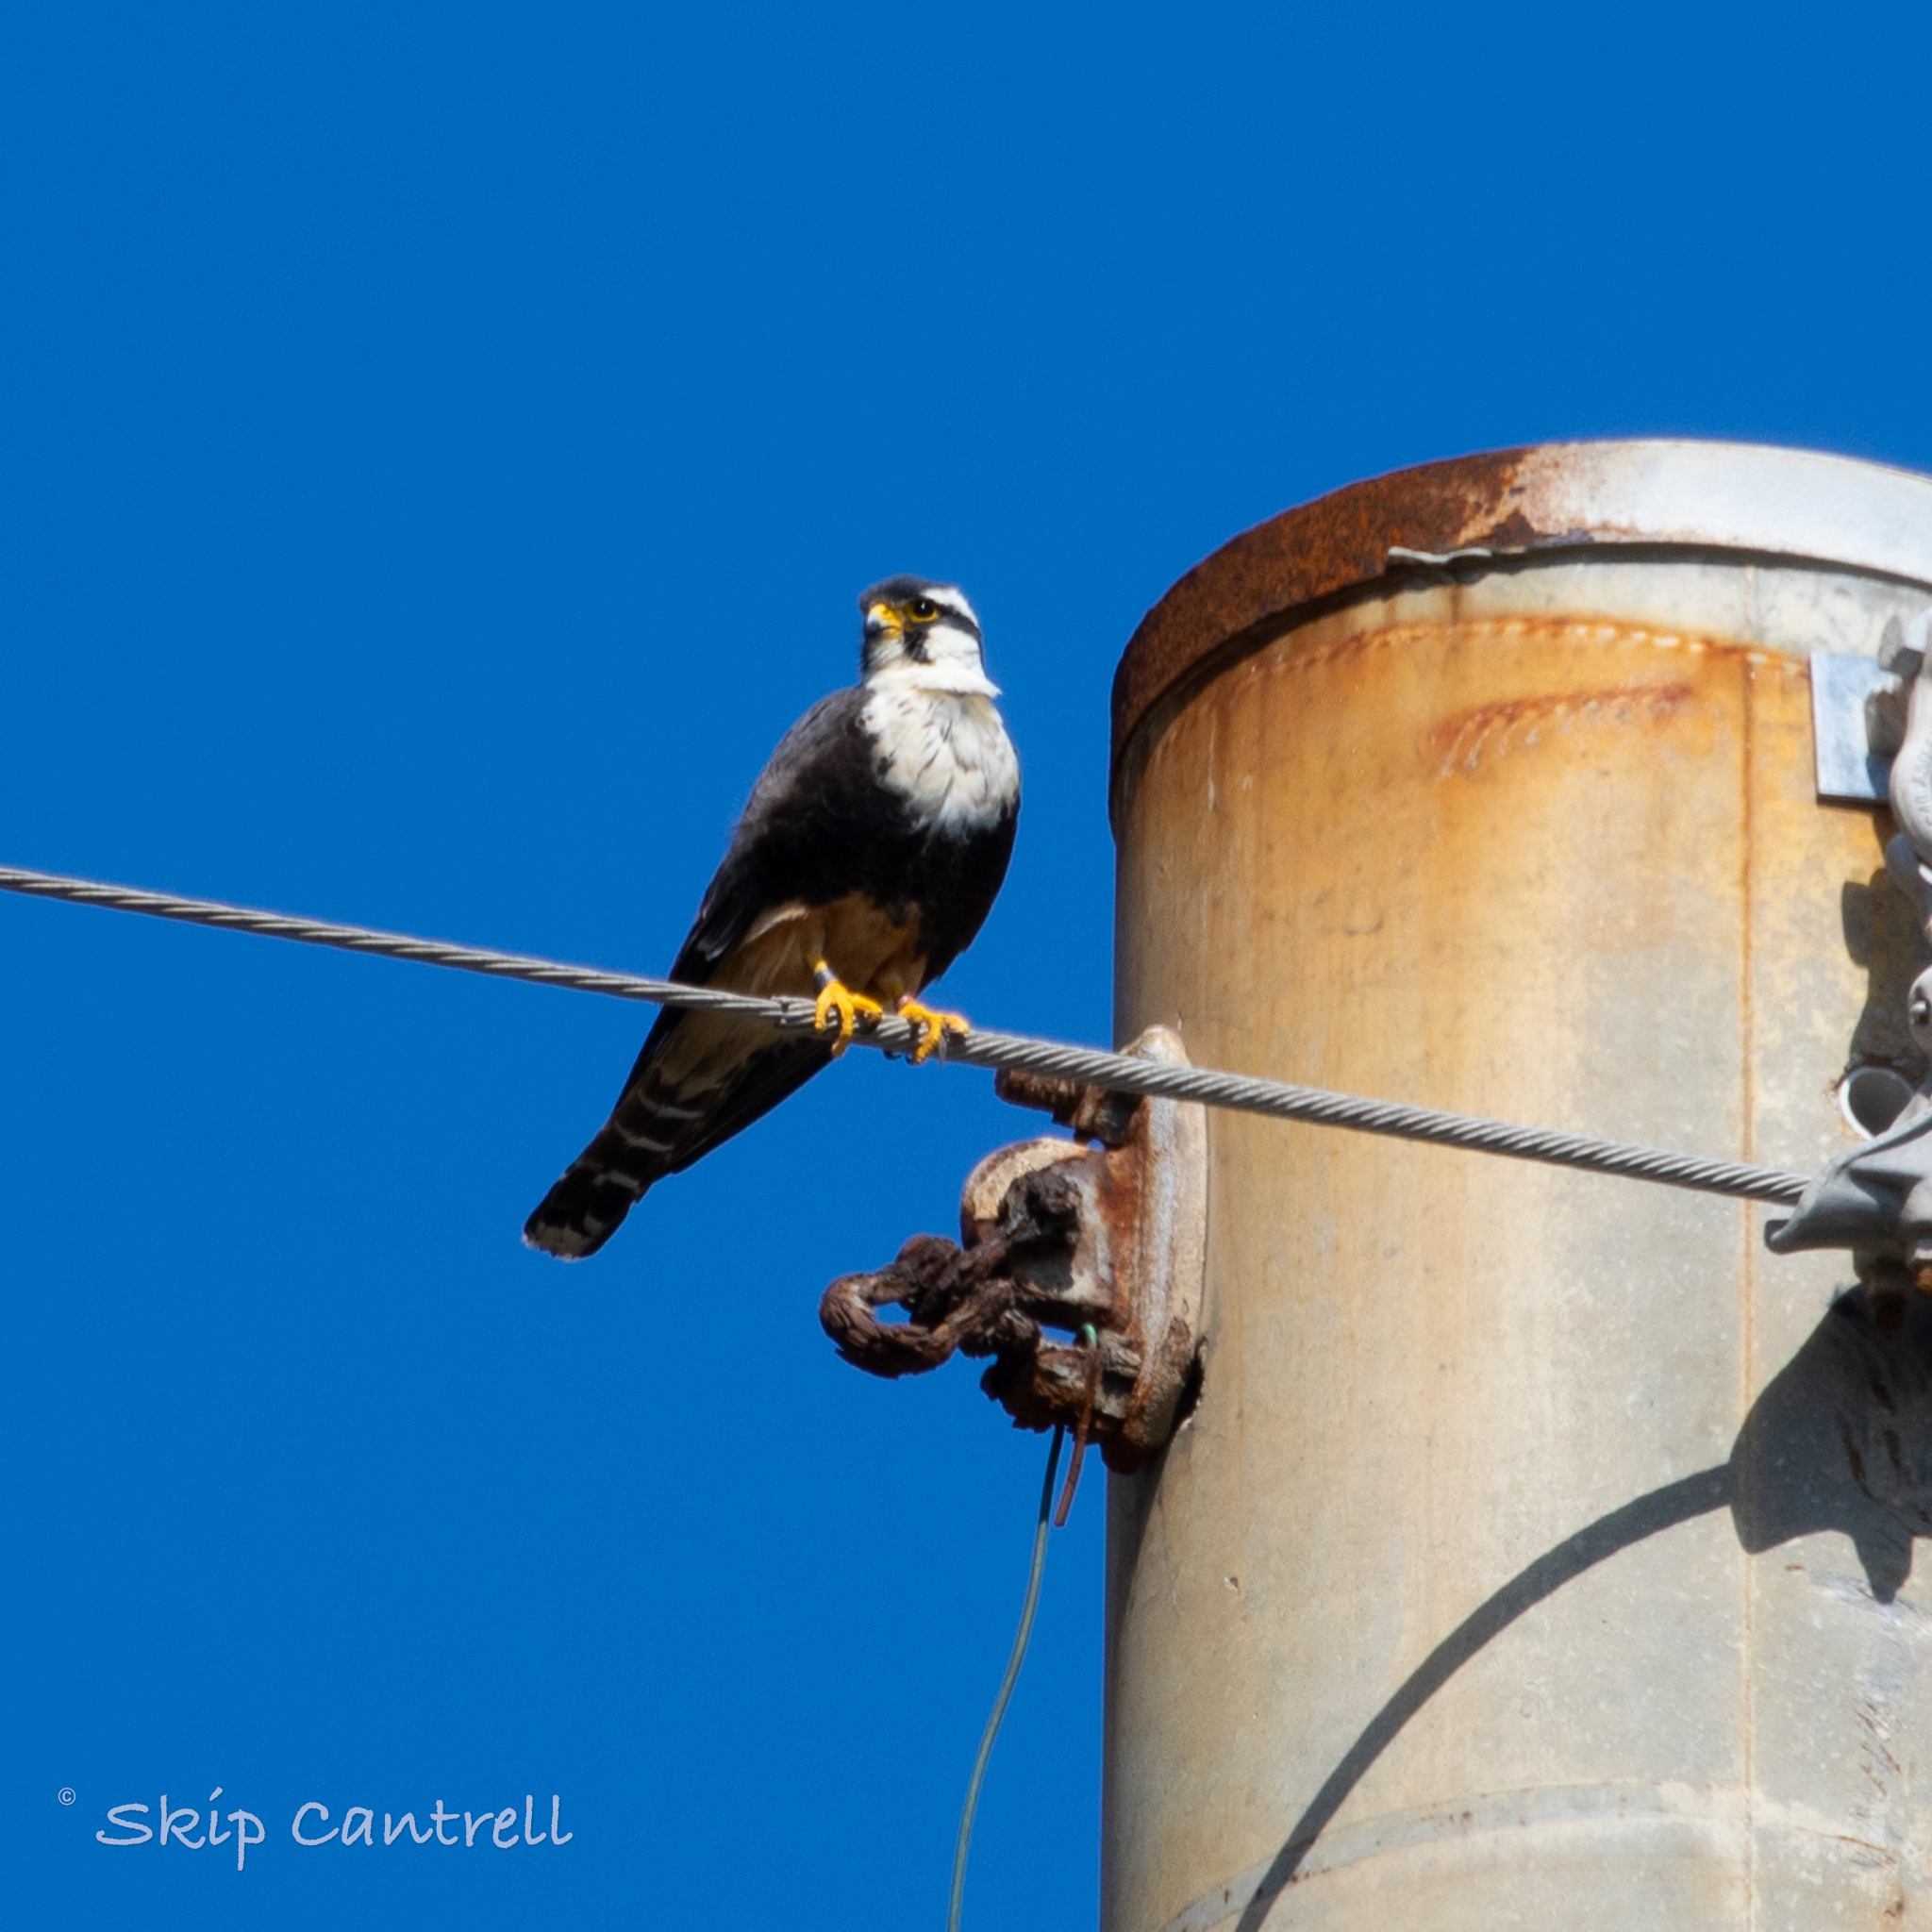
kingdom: Animalia
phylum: Chordata
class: Aves
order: Falconiformes
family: Falconidae
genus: Falco
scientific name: Falco femoralis
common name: Aplomado falcon
